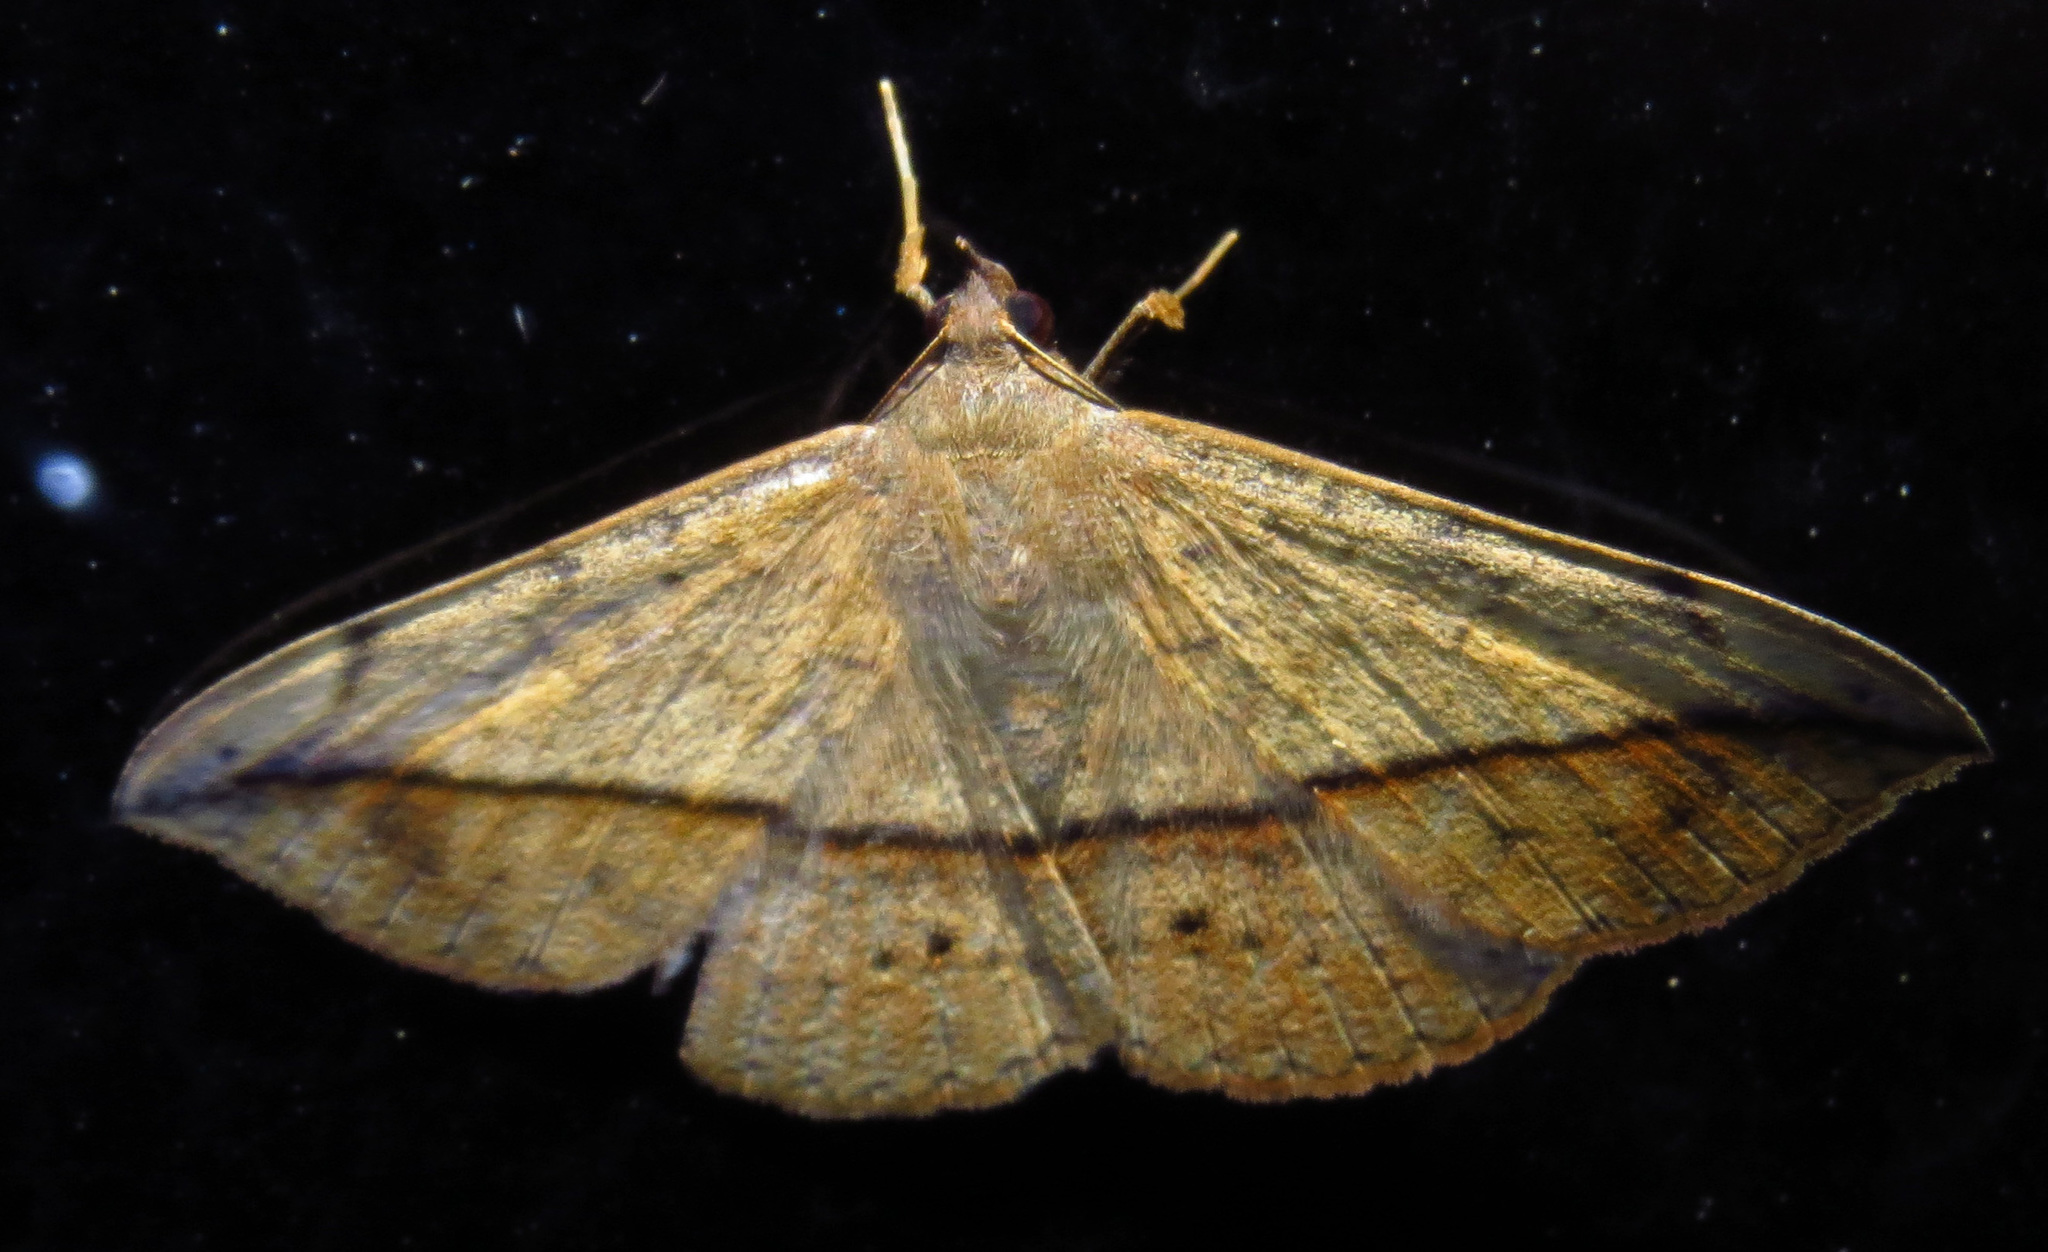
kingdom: Animalia
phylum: Arthropoda
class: Insecta
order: Lepidoptera
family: Erebidae
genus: Anticarsia
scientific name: Anticarsia gemmatalis
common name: Cutworm moth
